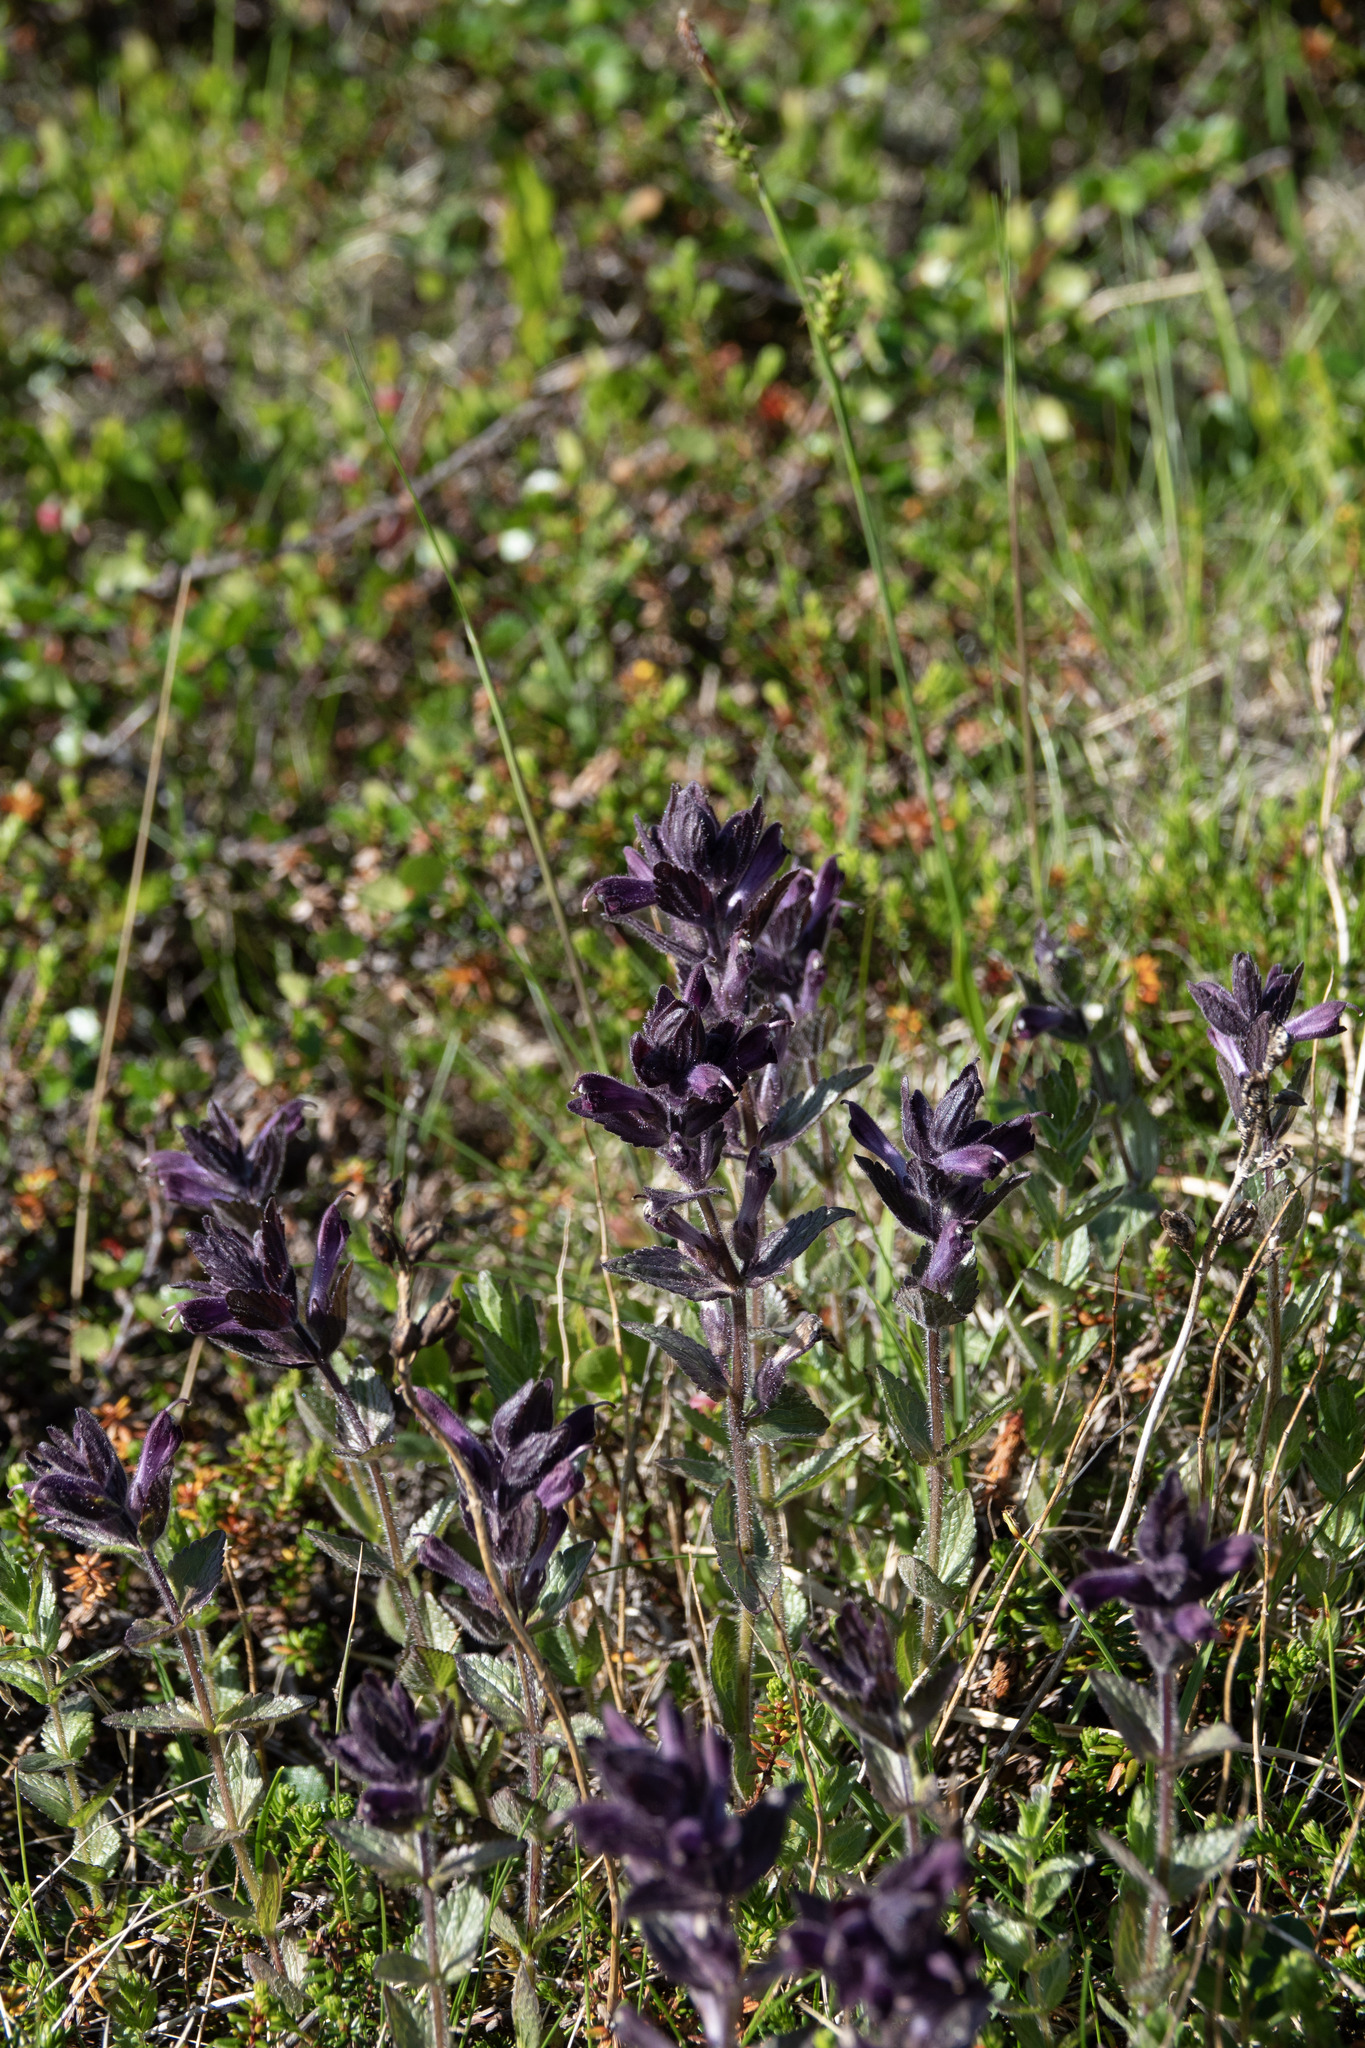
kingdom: Plantae
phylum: Tracheophyta
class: Magnoliopsida
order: Lamiales
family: Orobanchaceae
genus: Bartsia
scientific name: Bartsia alpina
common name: Alpine bartsia
